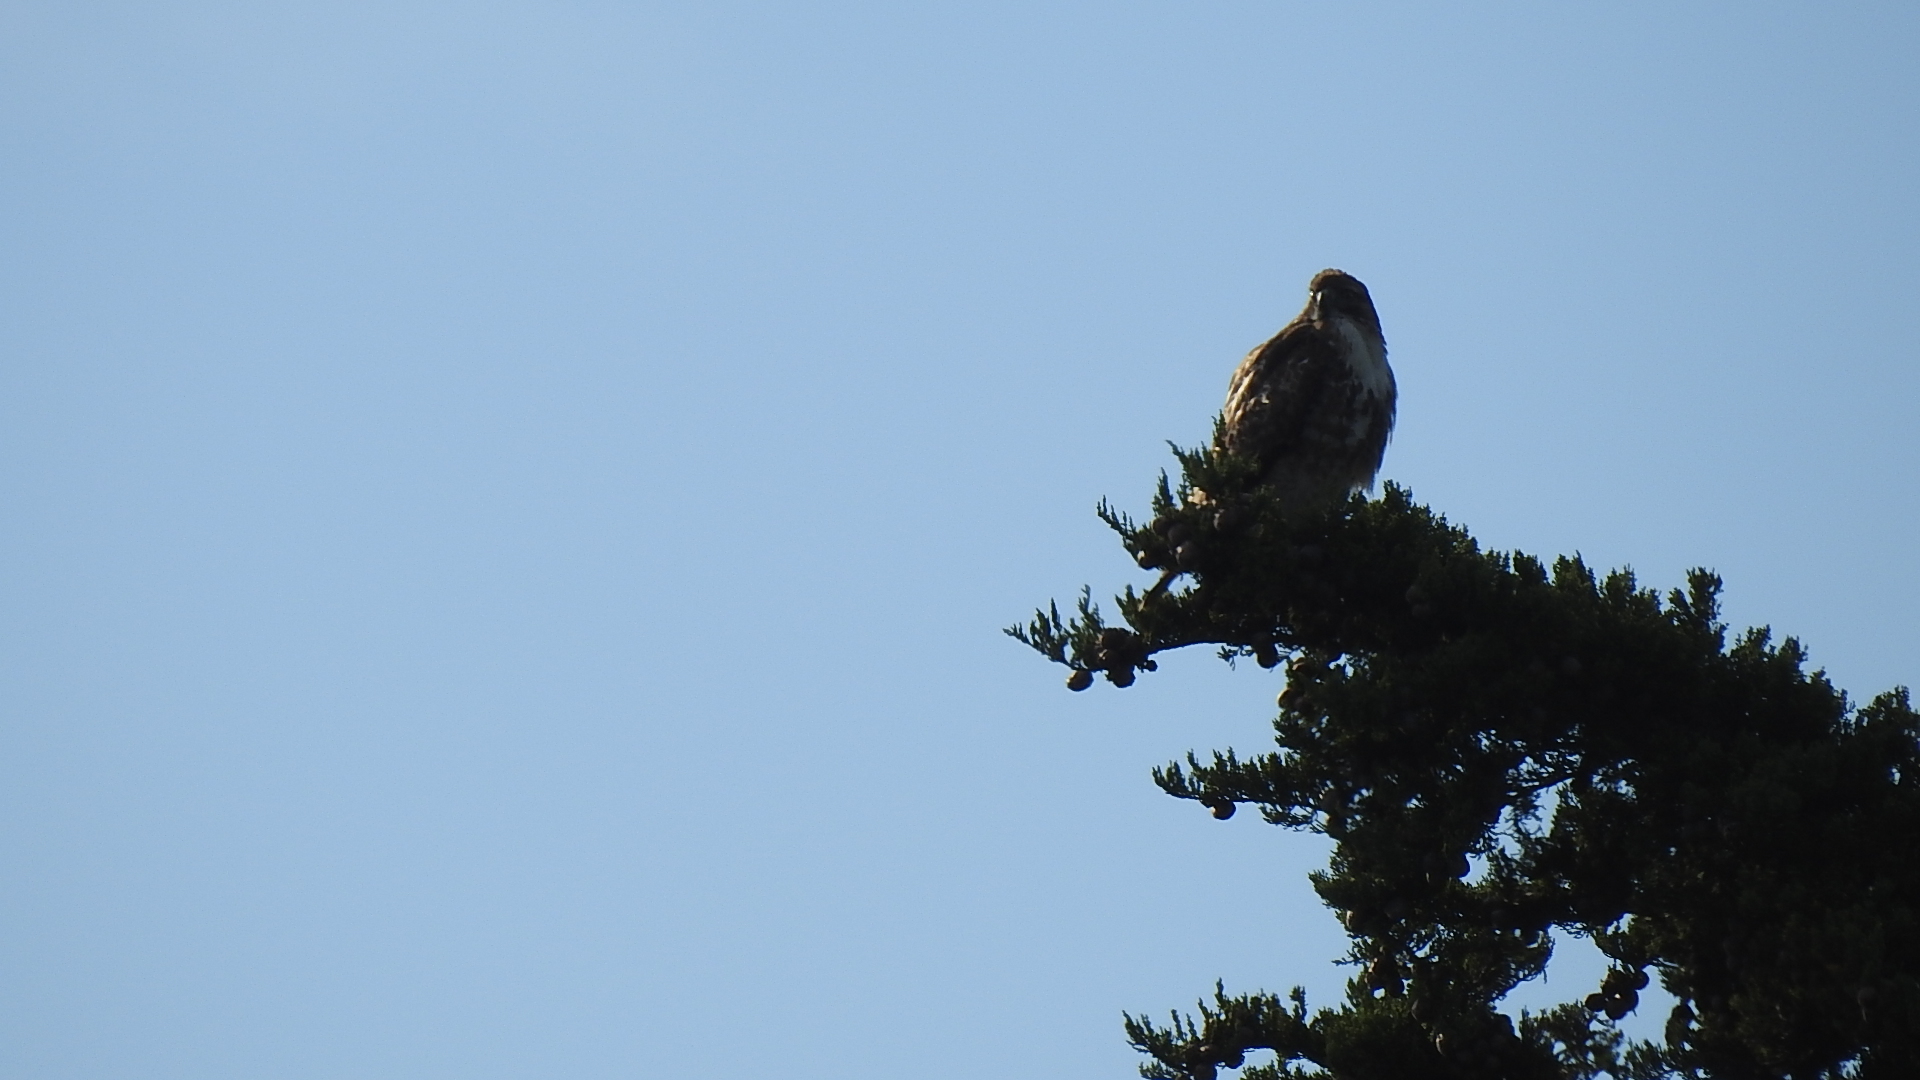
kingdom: Animalia
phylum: Chordata
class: Aves
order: Accipitriformes
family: Accipitridae
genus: Buteo
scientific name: Buteo jamaicensis
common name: Red-tailed hawk
